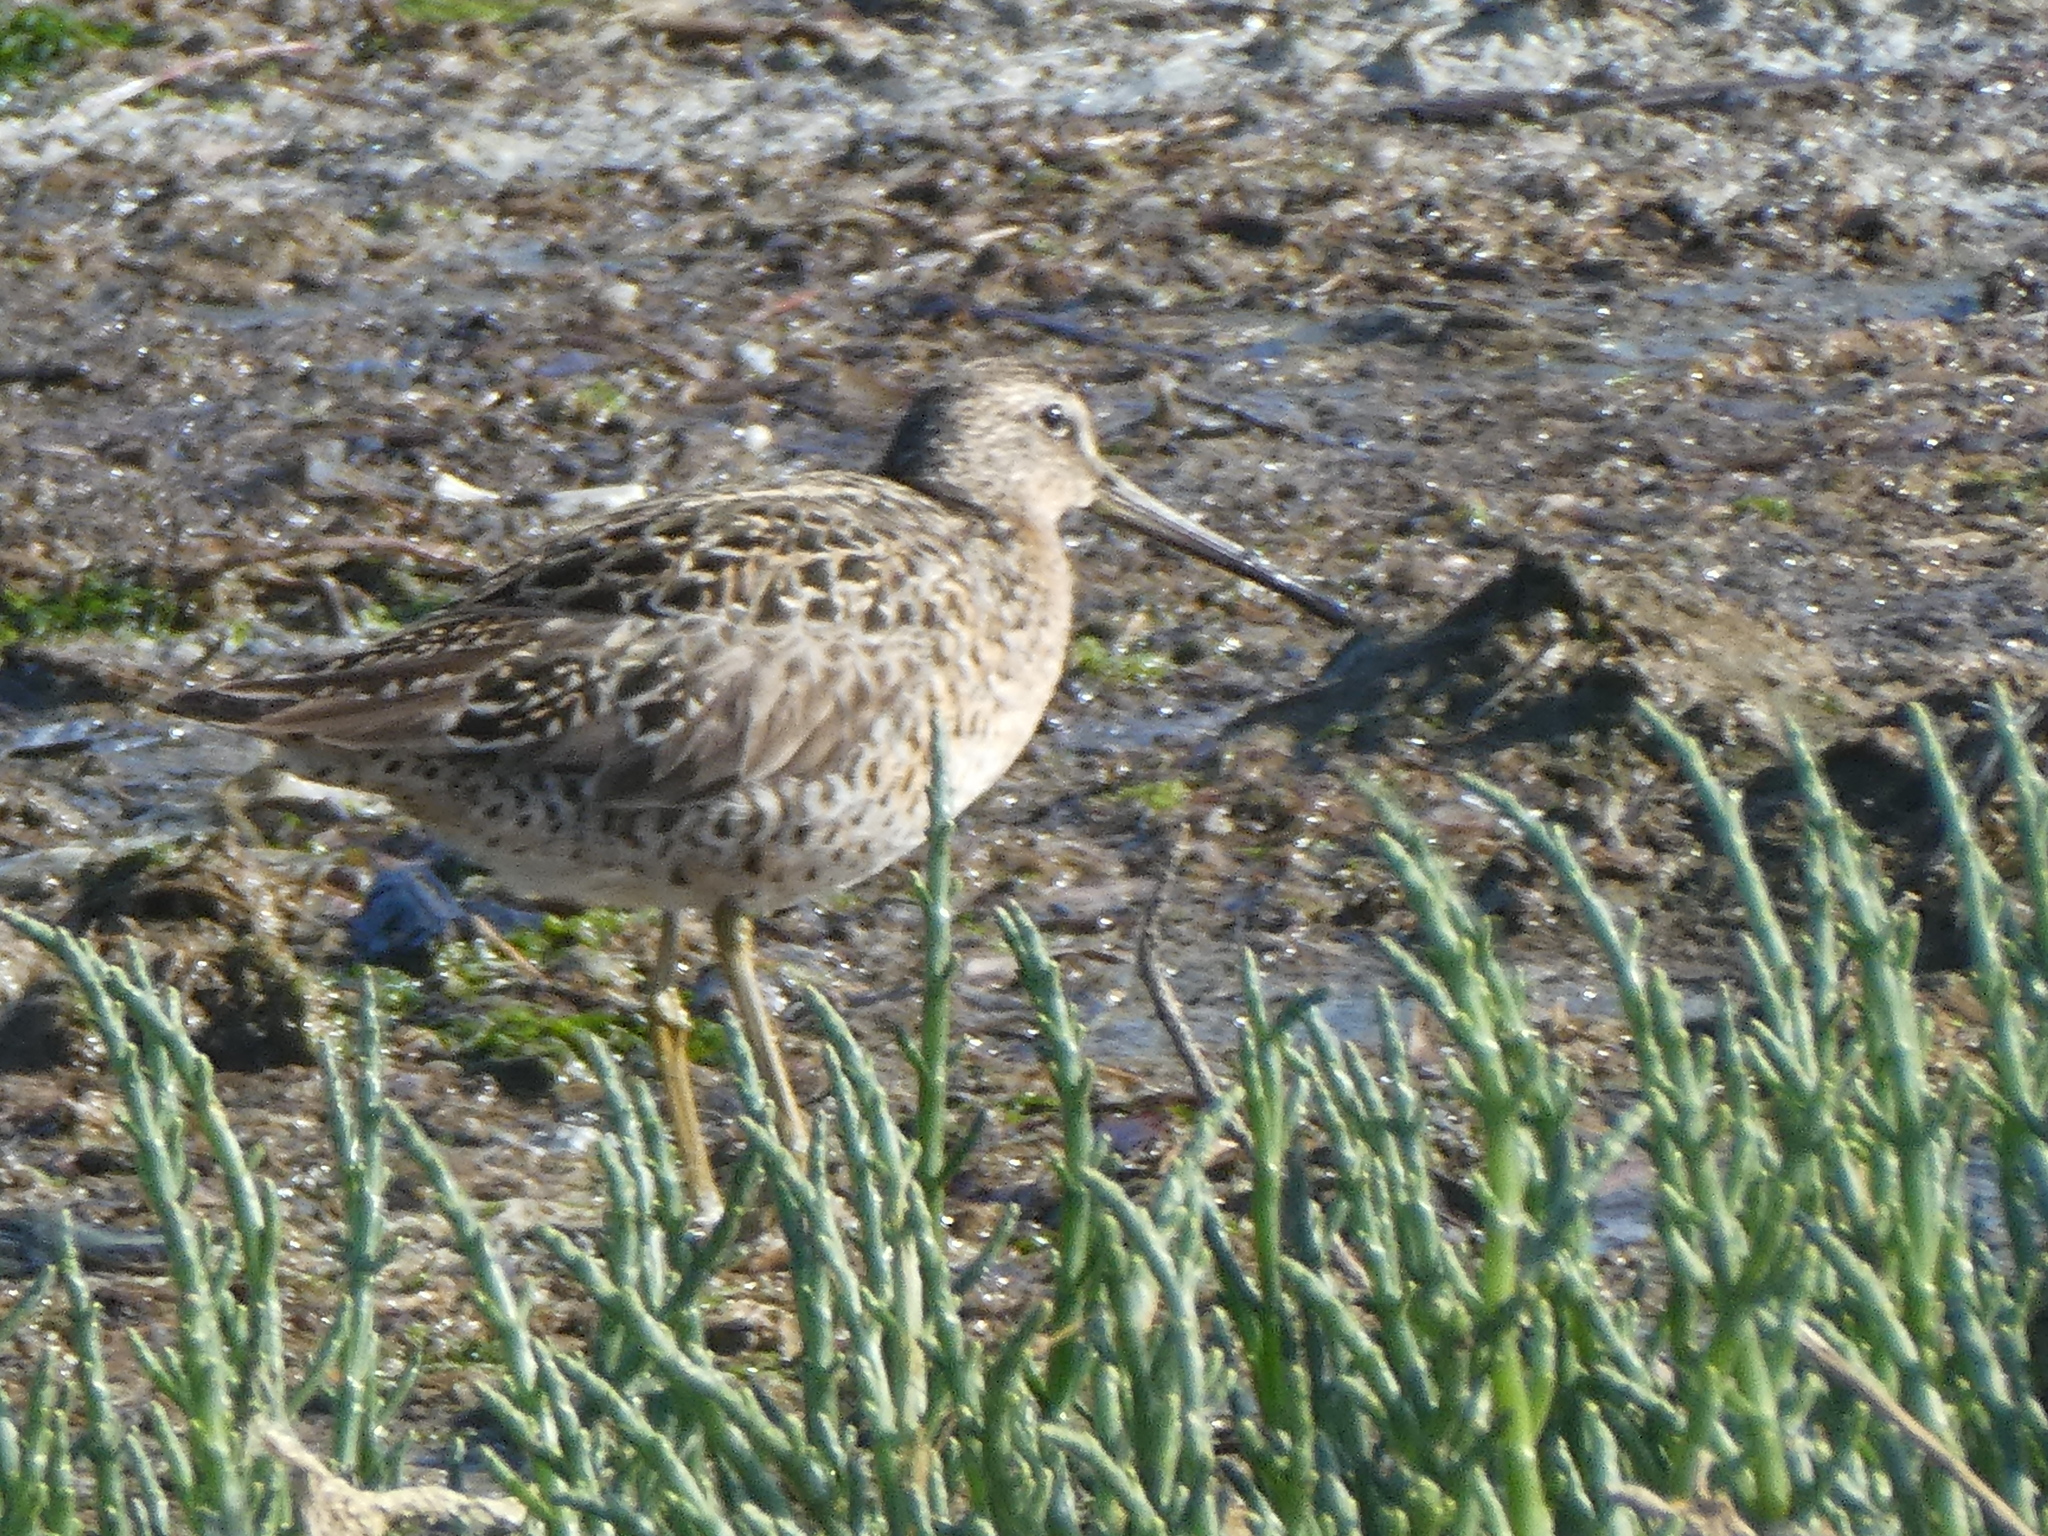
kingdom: Animalia
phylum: Chordata
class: Aves
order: Charadriiformes
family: Scolopacidae
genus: Limnodromus
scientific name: Limnodromus griseus
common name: Short-billed dowitcher
